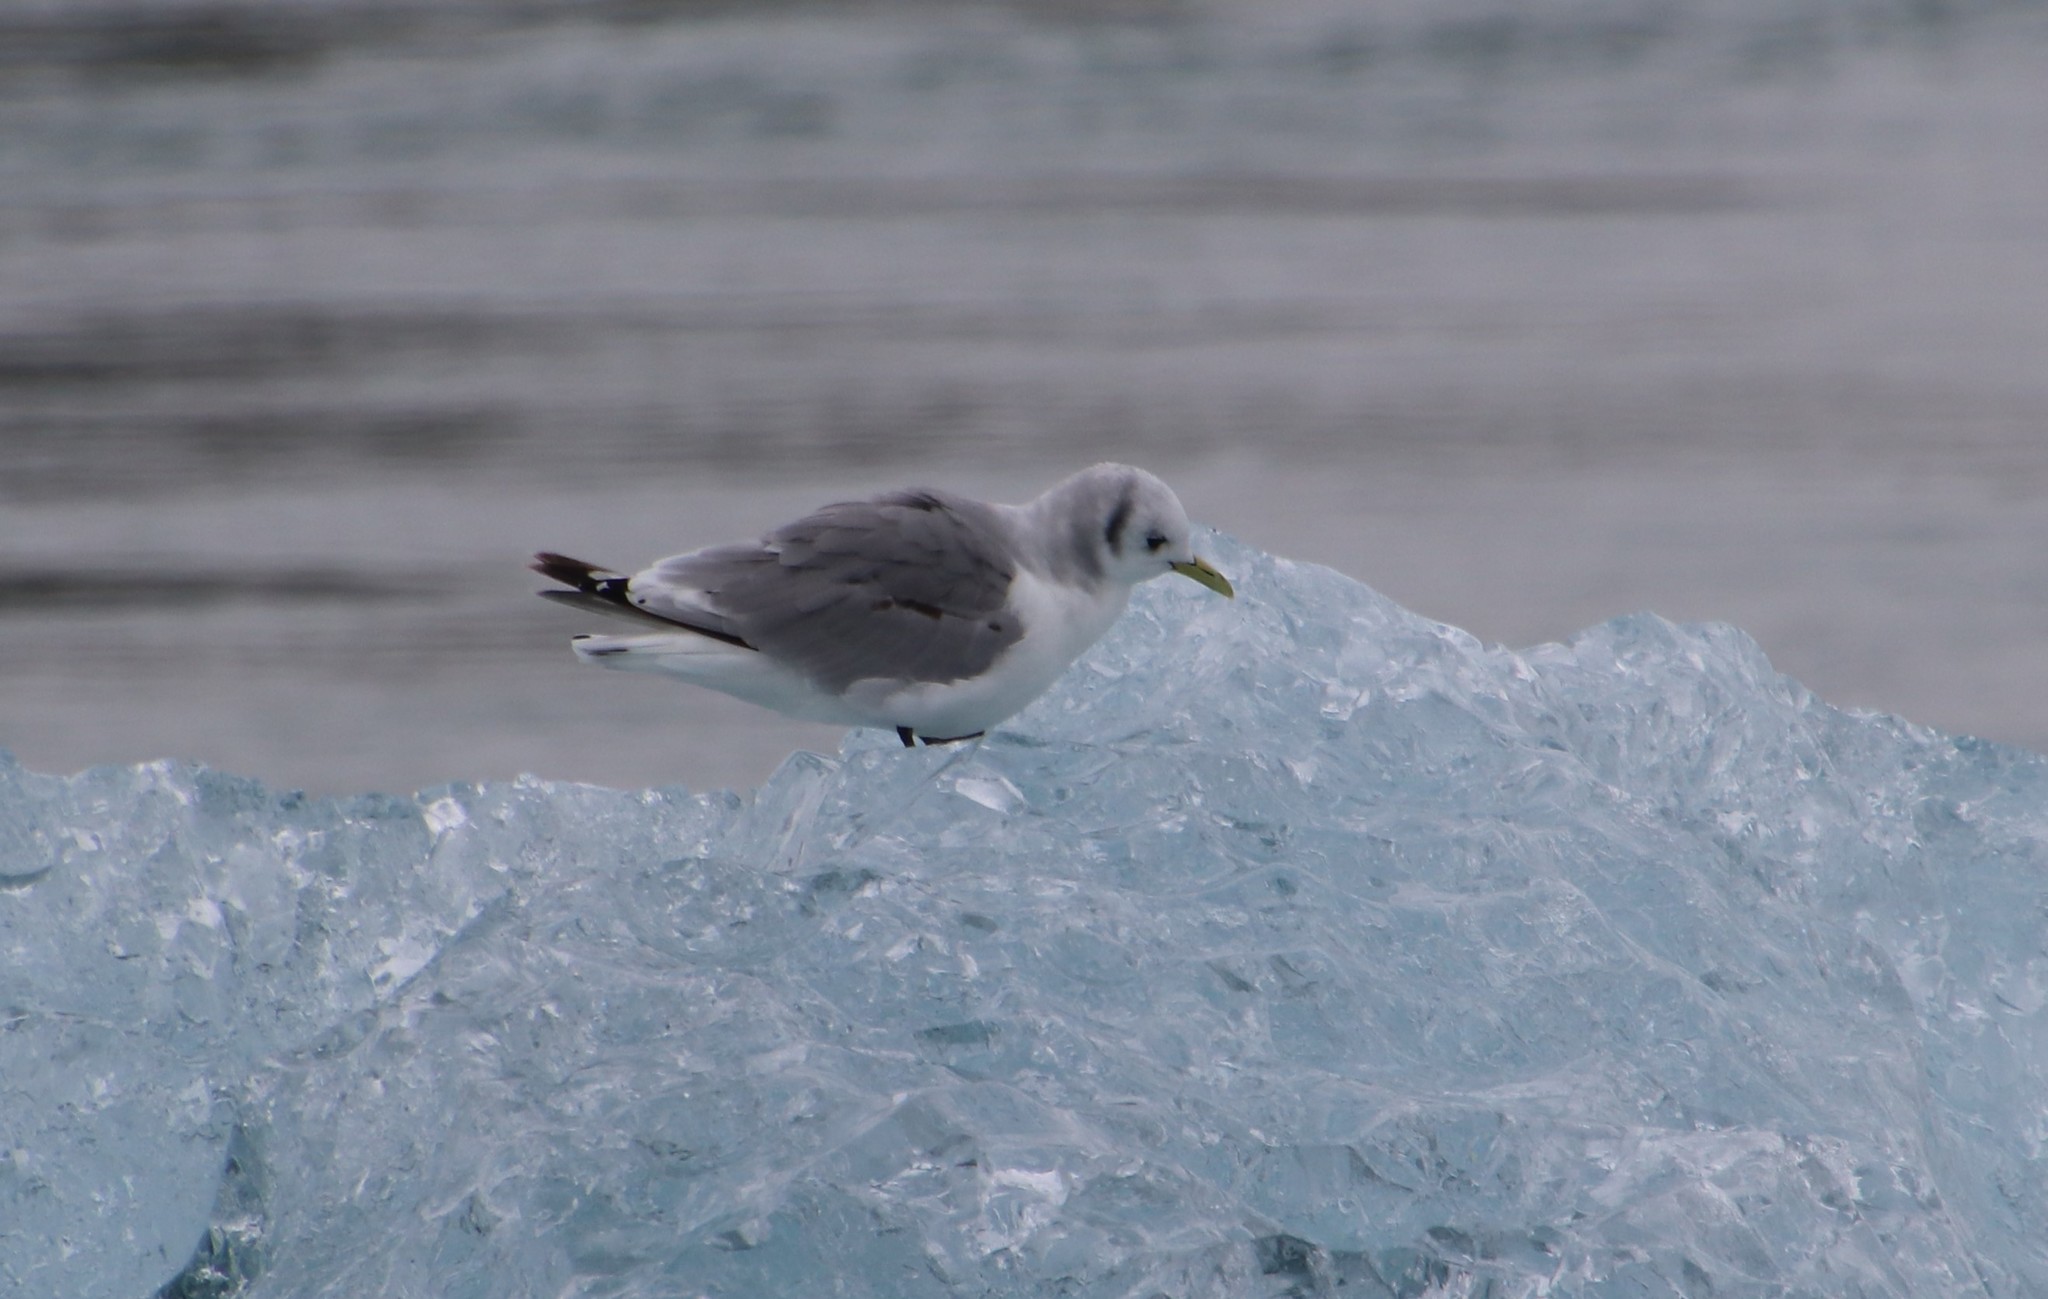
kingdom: Animalia
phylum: Chordata
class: Aves
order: Charadriiformes
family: Laridae
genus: Rissa
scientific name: Rissa tridactyla
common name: Black-legged kittiwake
